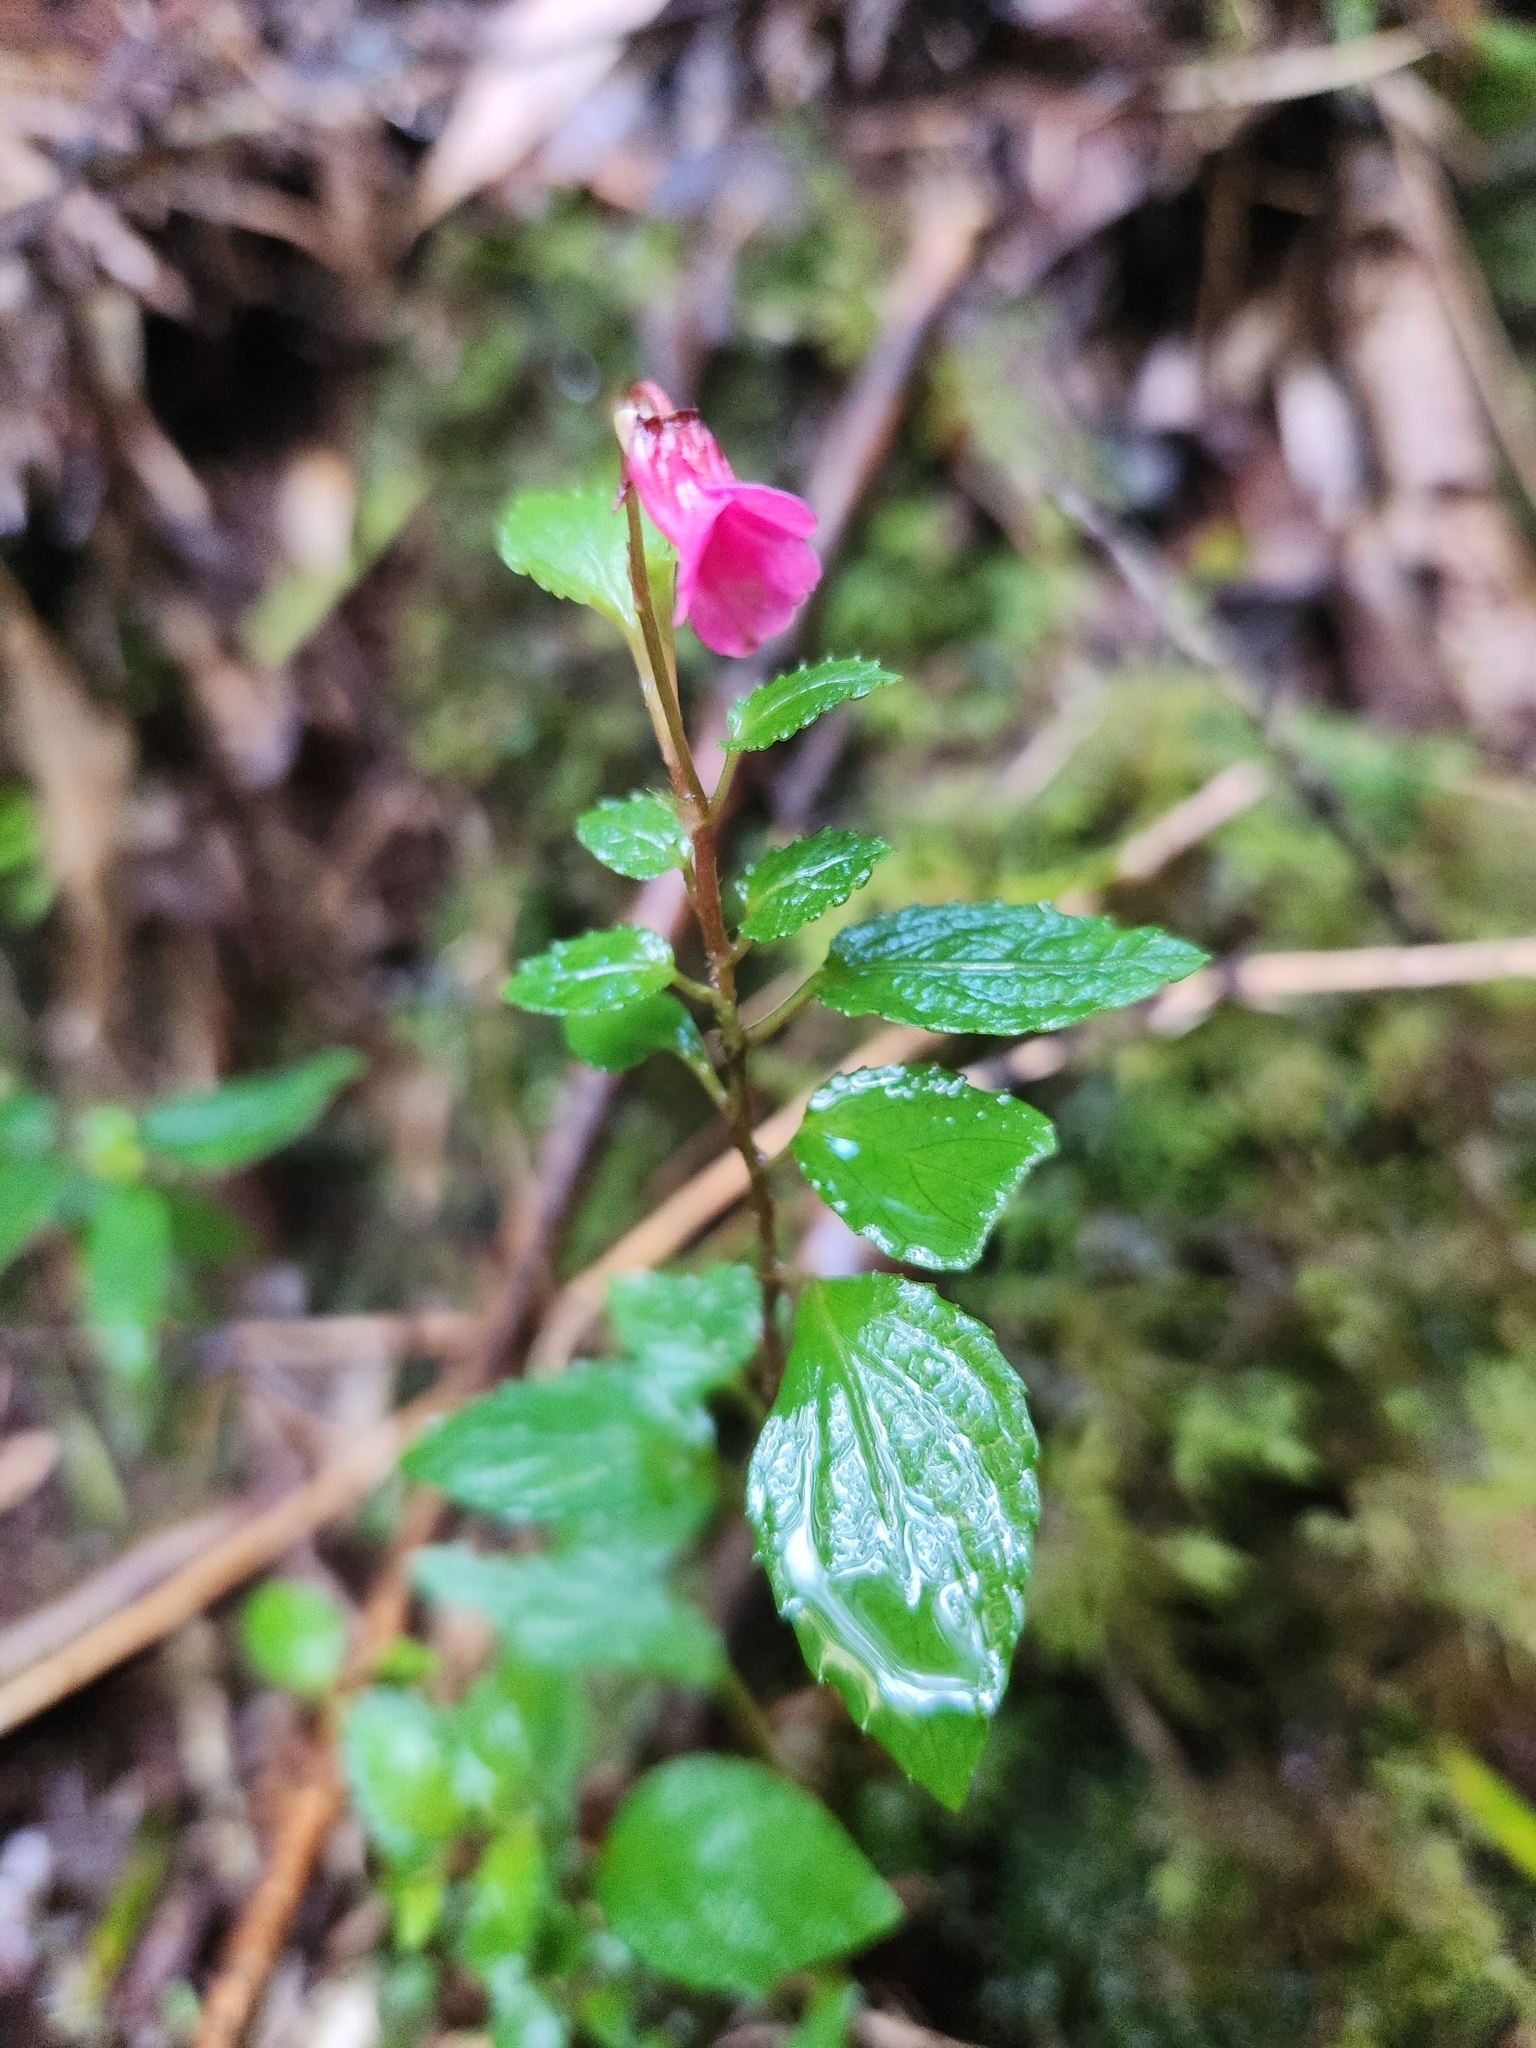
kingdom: Plantae
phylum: Tracheophyta
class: Magnoliopsida
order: Malpighiales
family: Violaceae
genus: Viola
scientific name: Viola rubella
